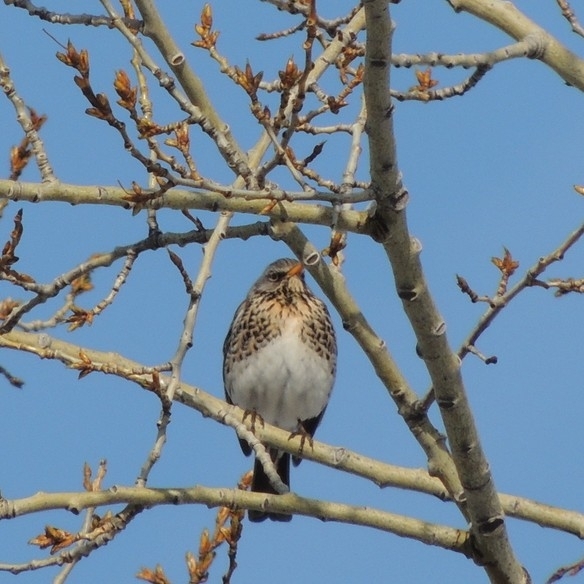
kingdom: Animalia
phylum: Chordata
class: Aves
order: Passeriformes
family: Turdidae
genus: Turdus
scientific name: Turdus pilaris
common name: Fieldfare
